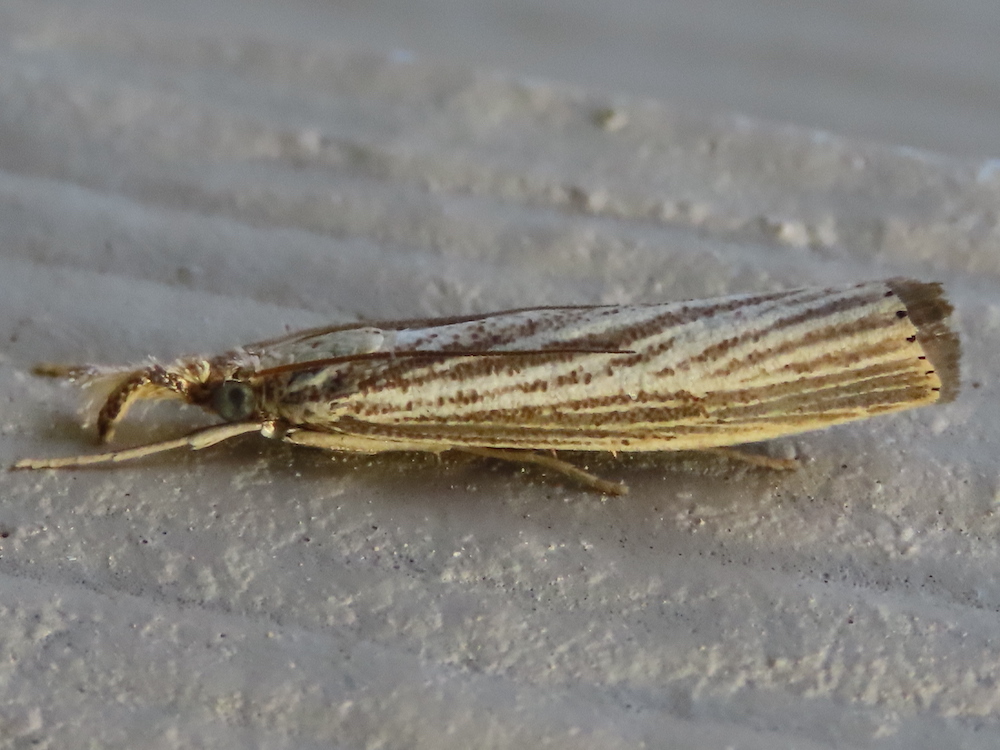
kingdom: Animalia
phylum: Arthropoda
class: Insecta
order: Lepidoptera
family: Crambidae
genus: Agriphila
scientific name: Agriphila vulgivagellus
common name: Vagabond crambus moth
